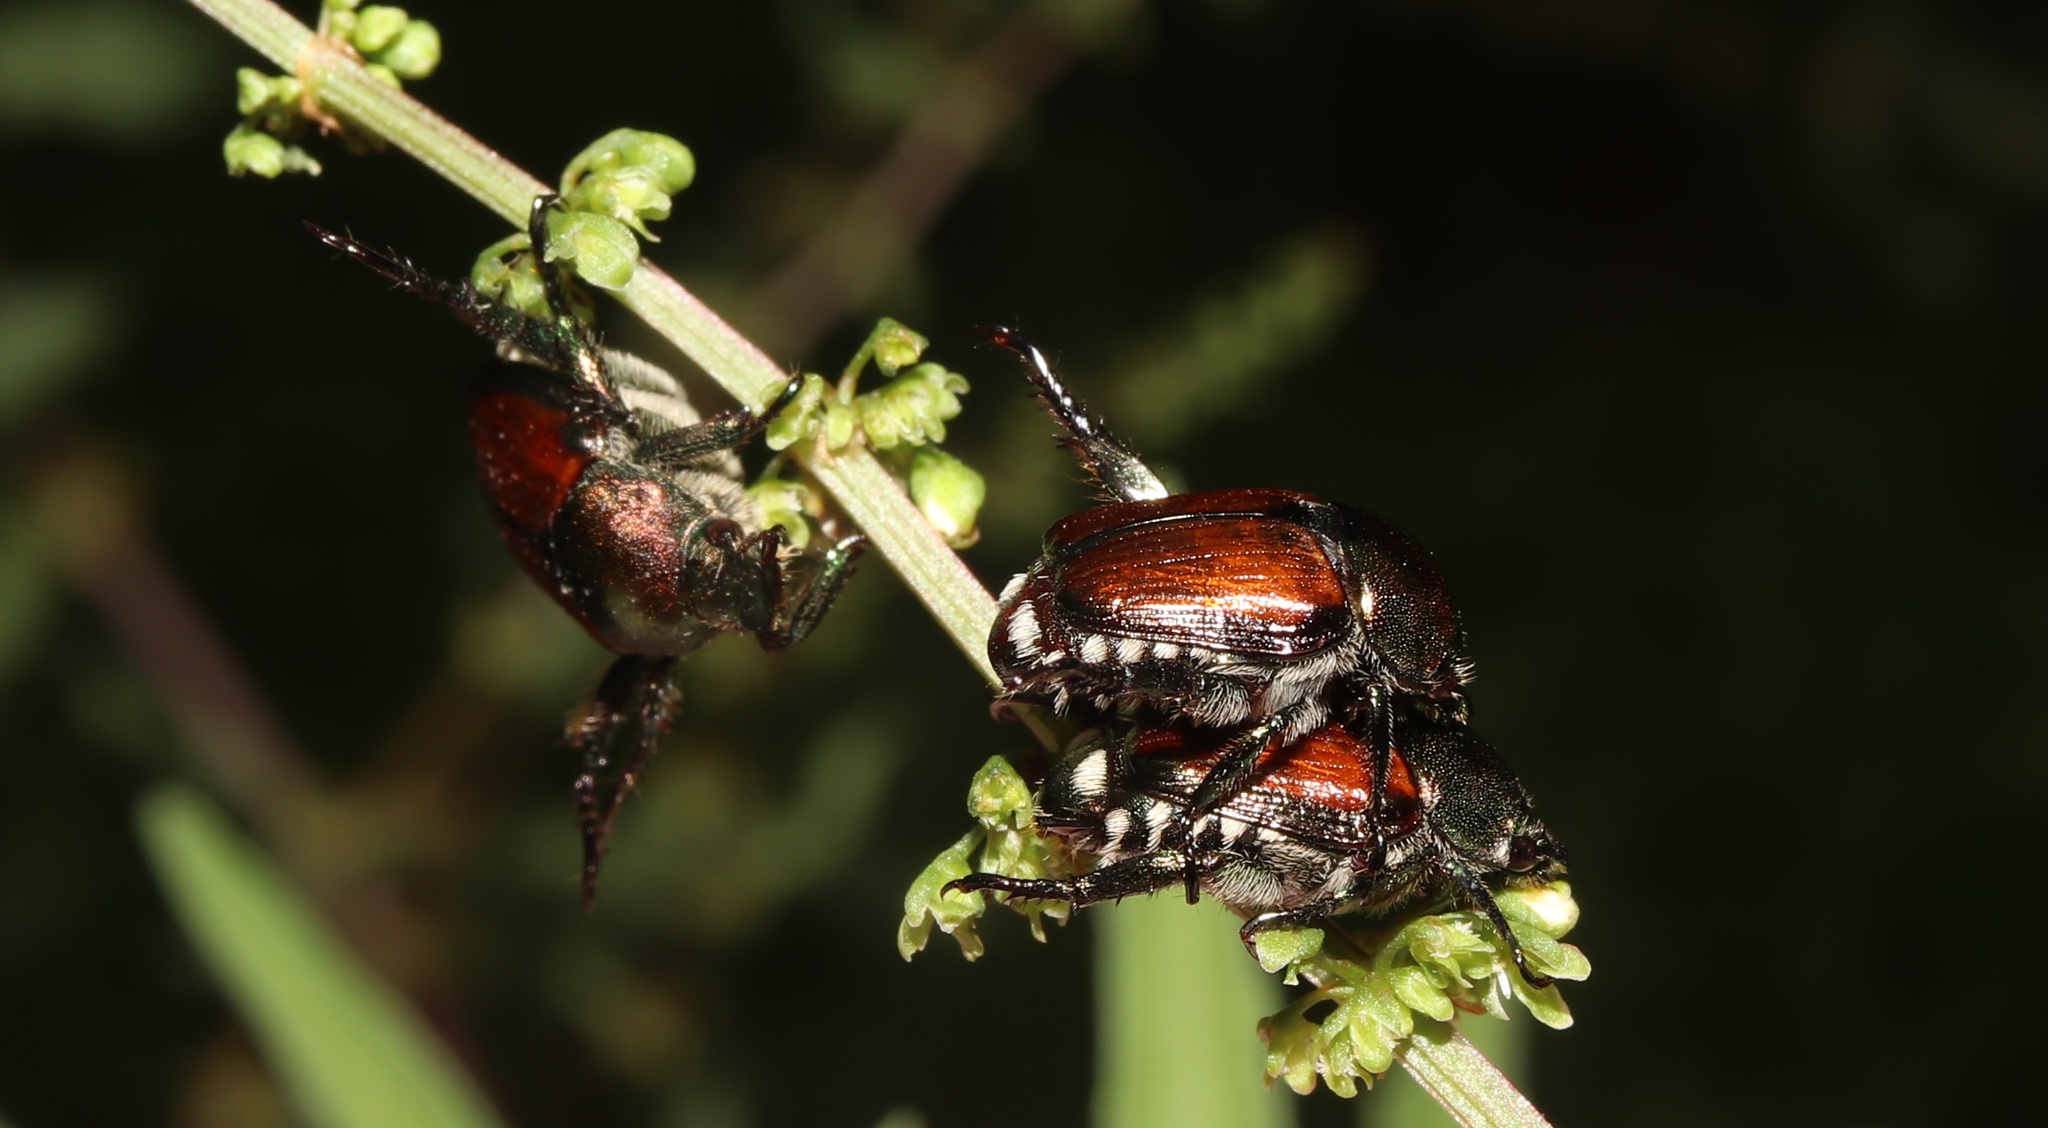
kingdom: Animalia
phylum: Arthropoda
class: Insecta
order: Coleoptera
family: Scarabaeidae
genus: Popillia
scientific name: Popillia japonica
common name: Japanese beetle
